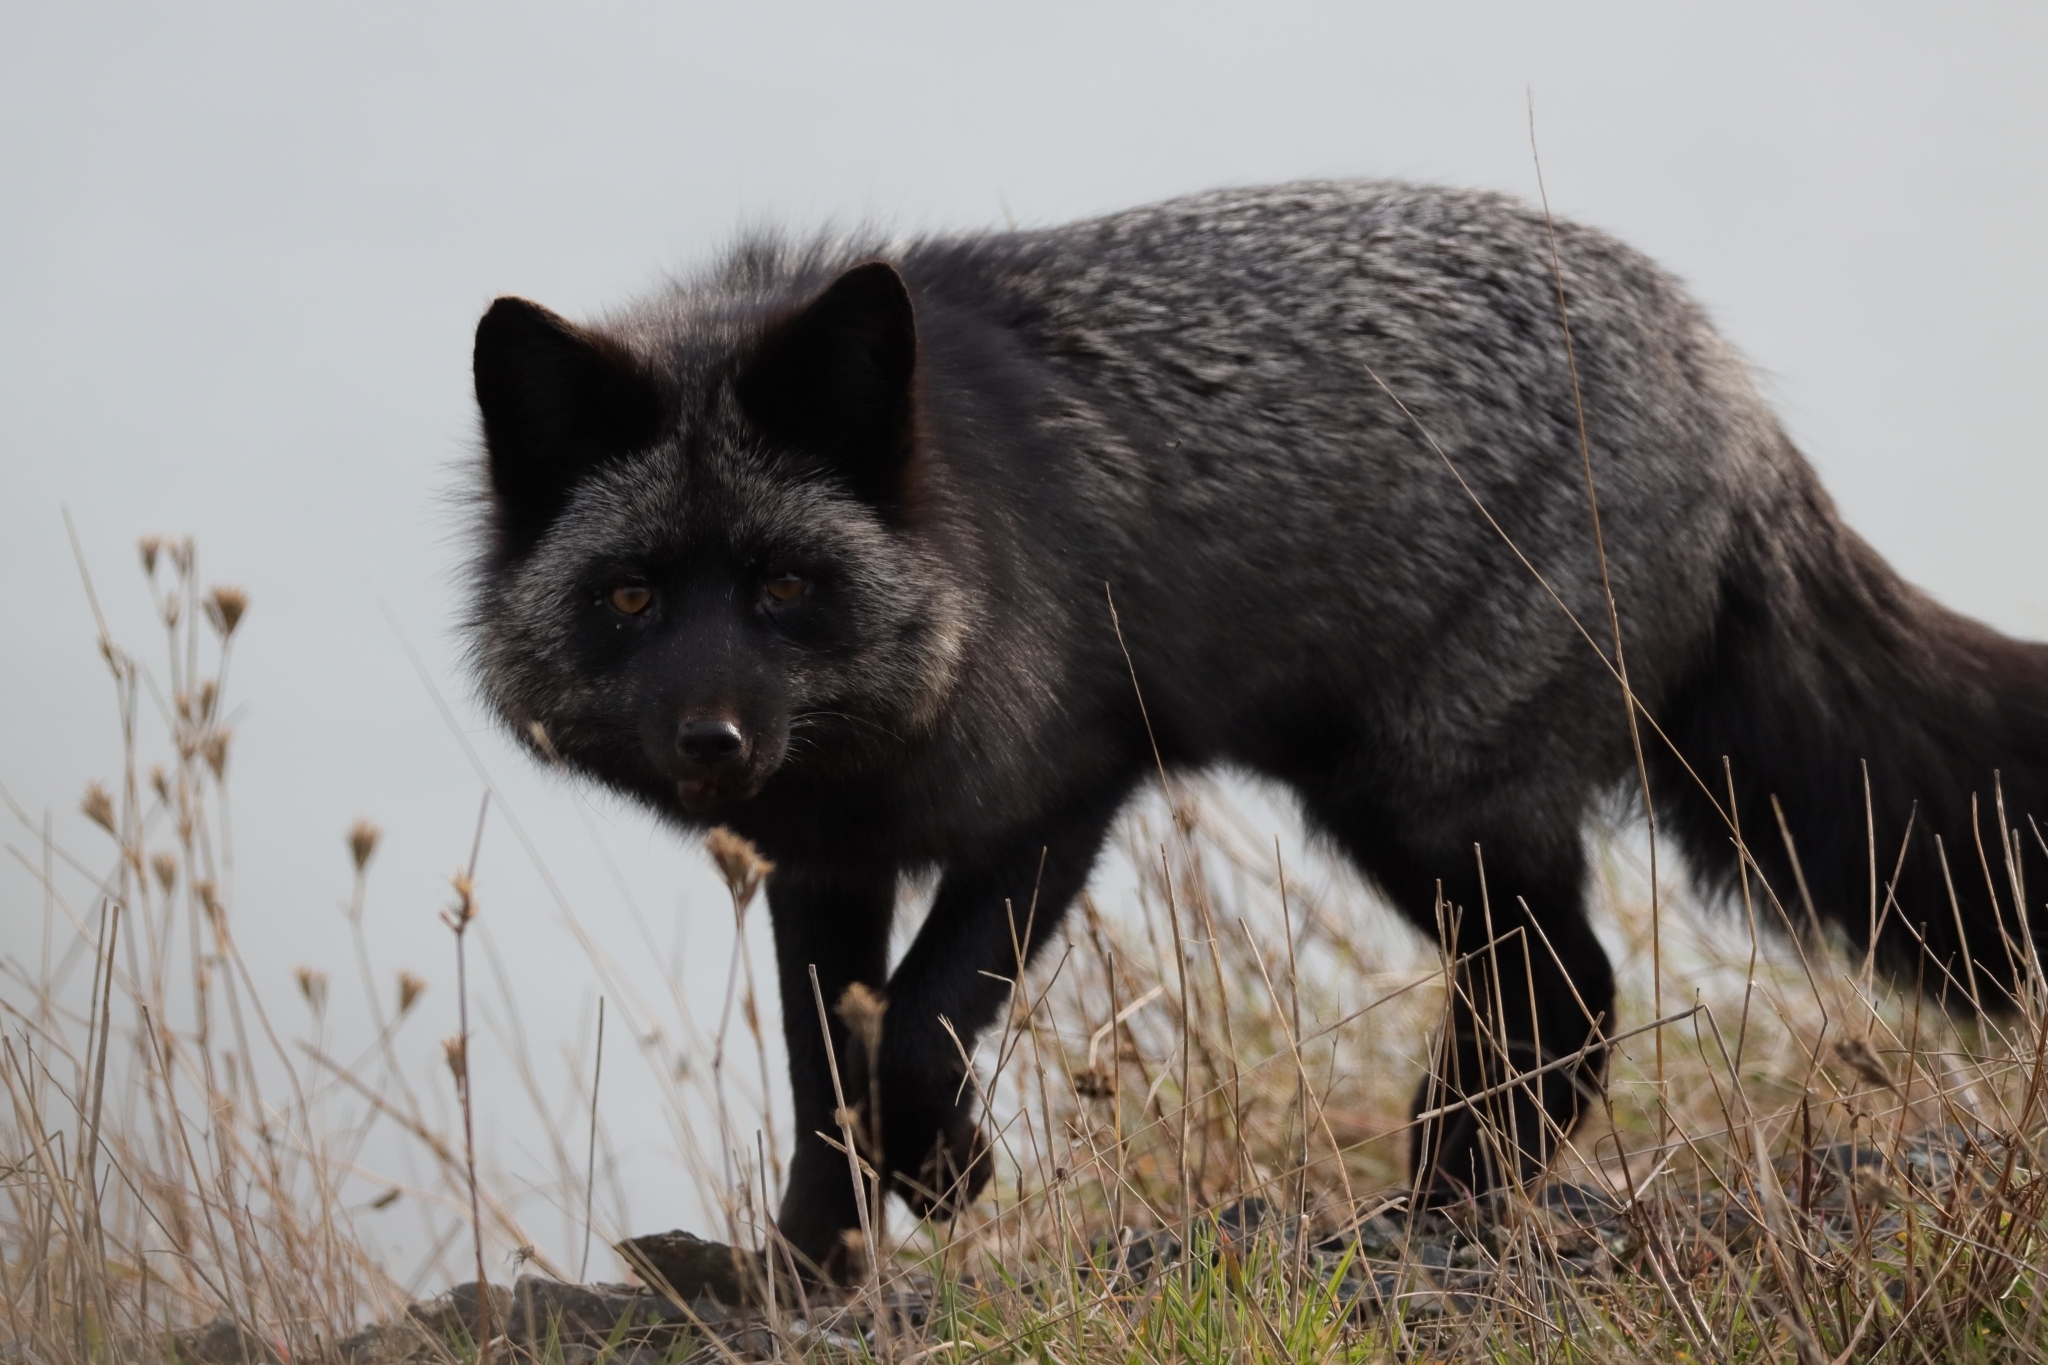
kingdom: Animalia
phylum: Chordata
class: Mammalia
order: Carnivora
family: Canidae
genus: Vulpes
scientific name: Vulpes vulpes
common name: Red fox
